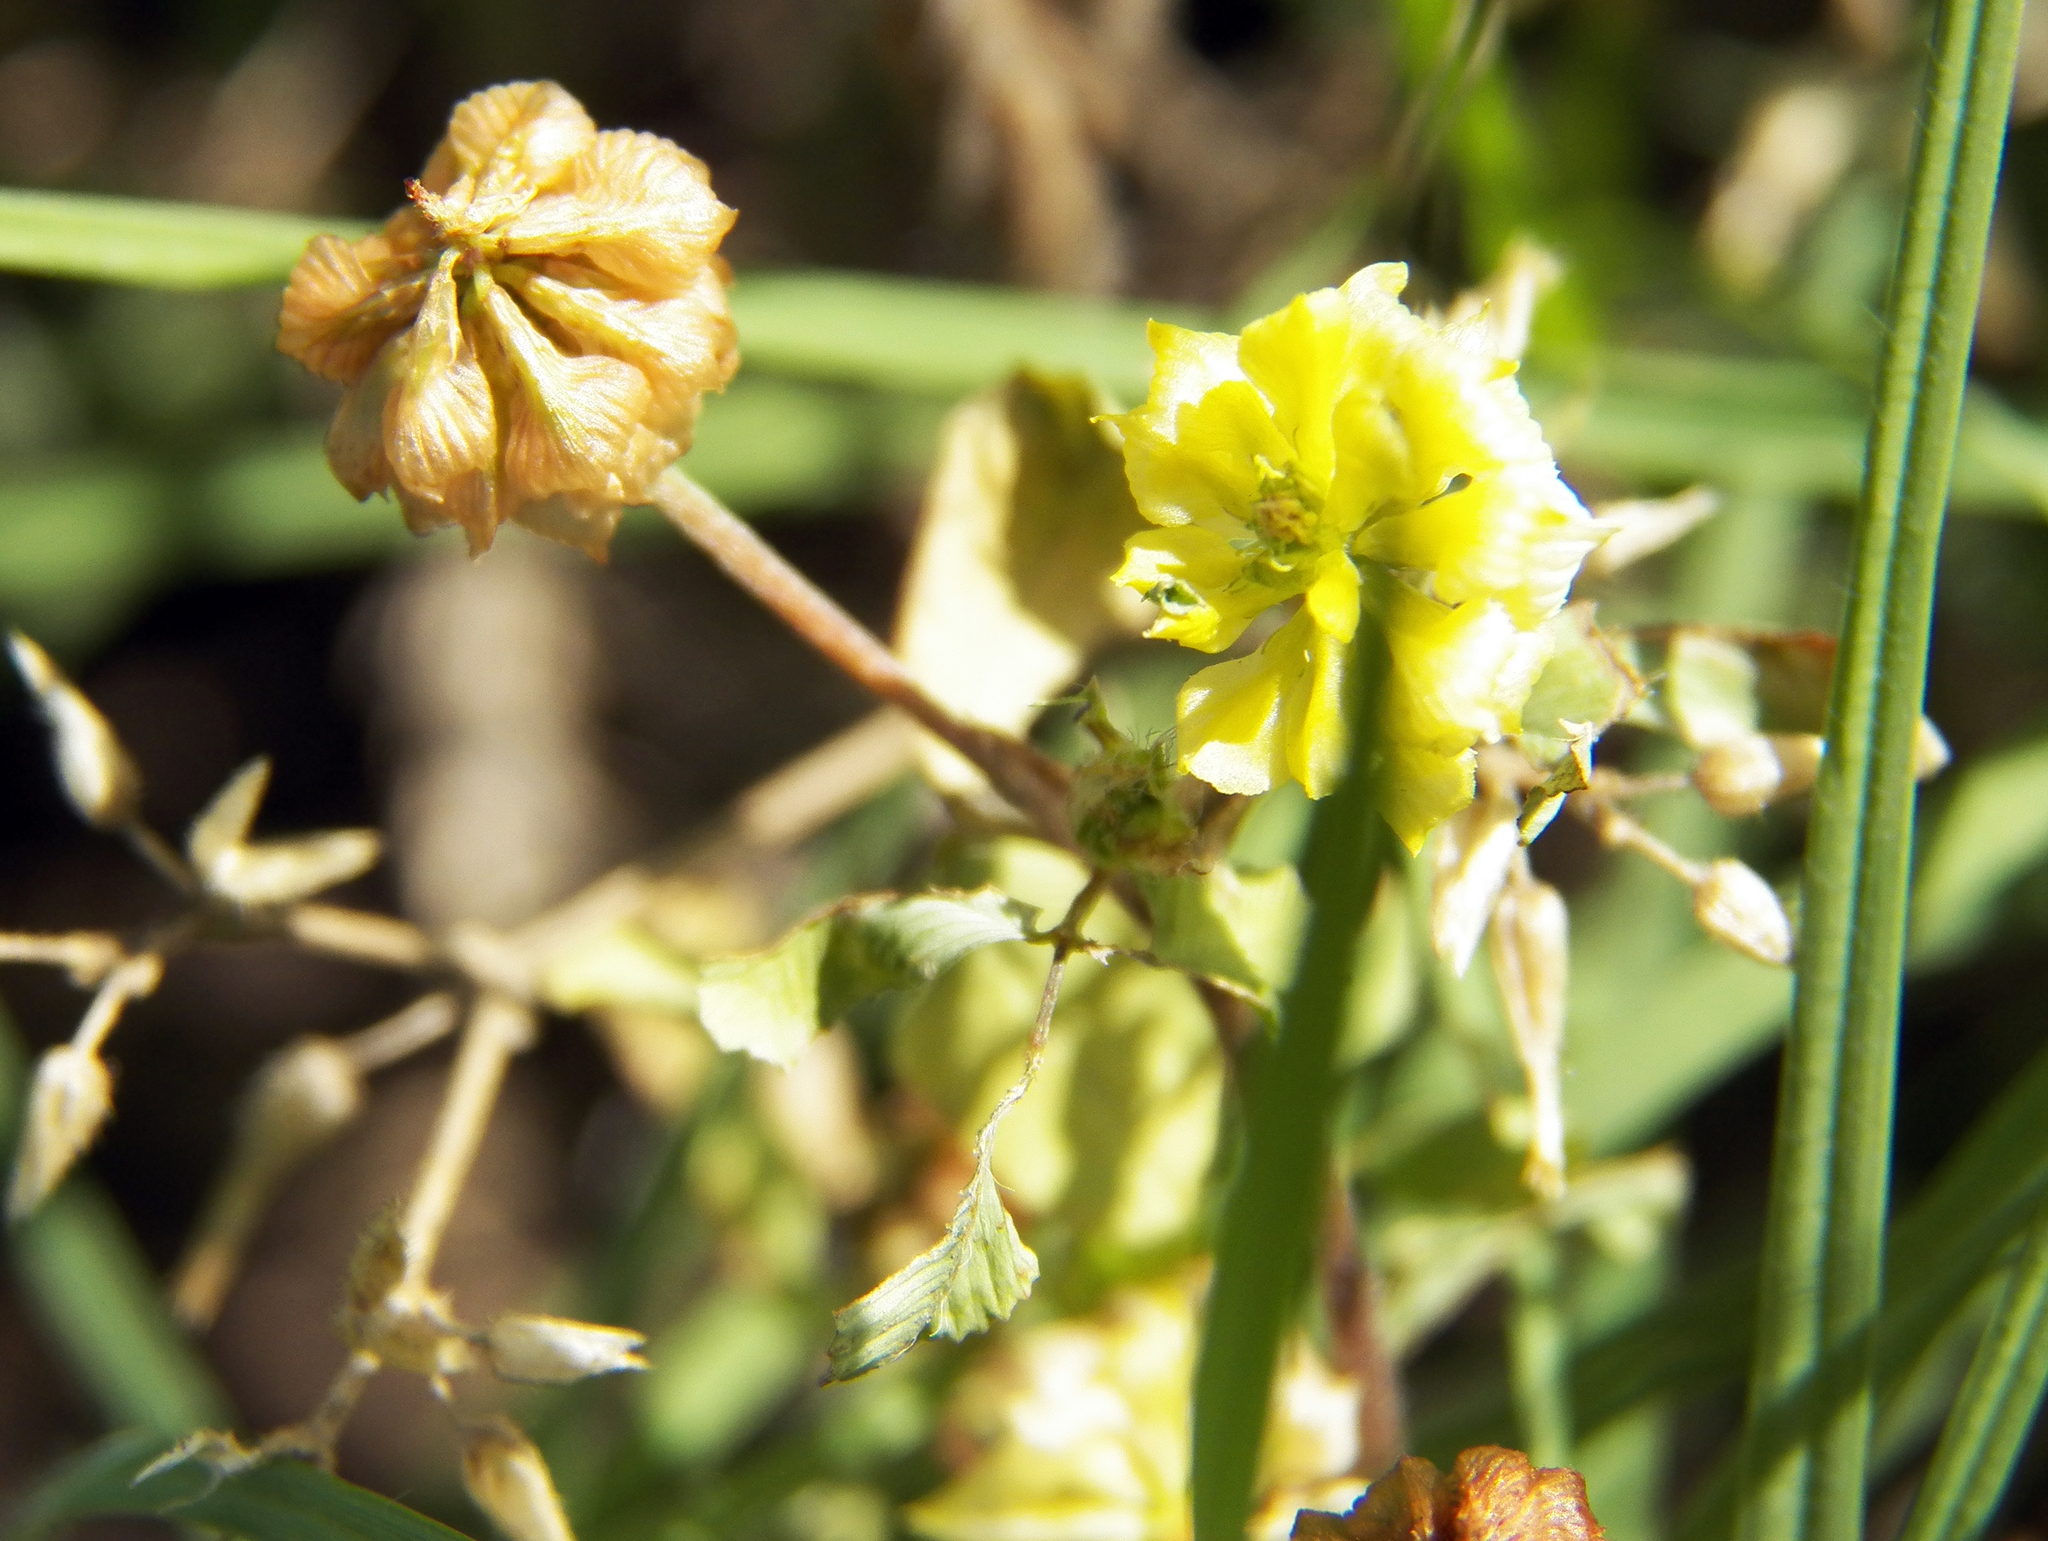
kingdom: Plantae
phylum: Tracheophyta
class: Magnoliopsida
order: Fabales
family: Fabaceae
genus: Trifolium
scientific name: Trifolium campestre
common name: Field clover
